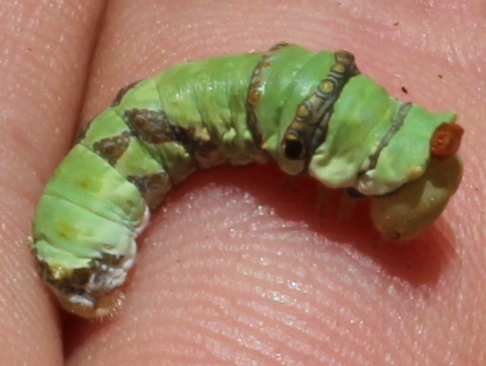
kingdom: Animalia
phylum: Arthropoda
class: Insecta
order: Lepidoptera
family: Papilionidae
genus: Papilio
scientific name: Papilio demodocus
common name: Christmas butterfly
